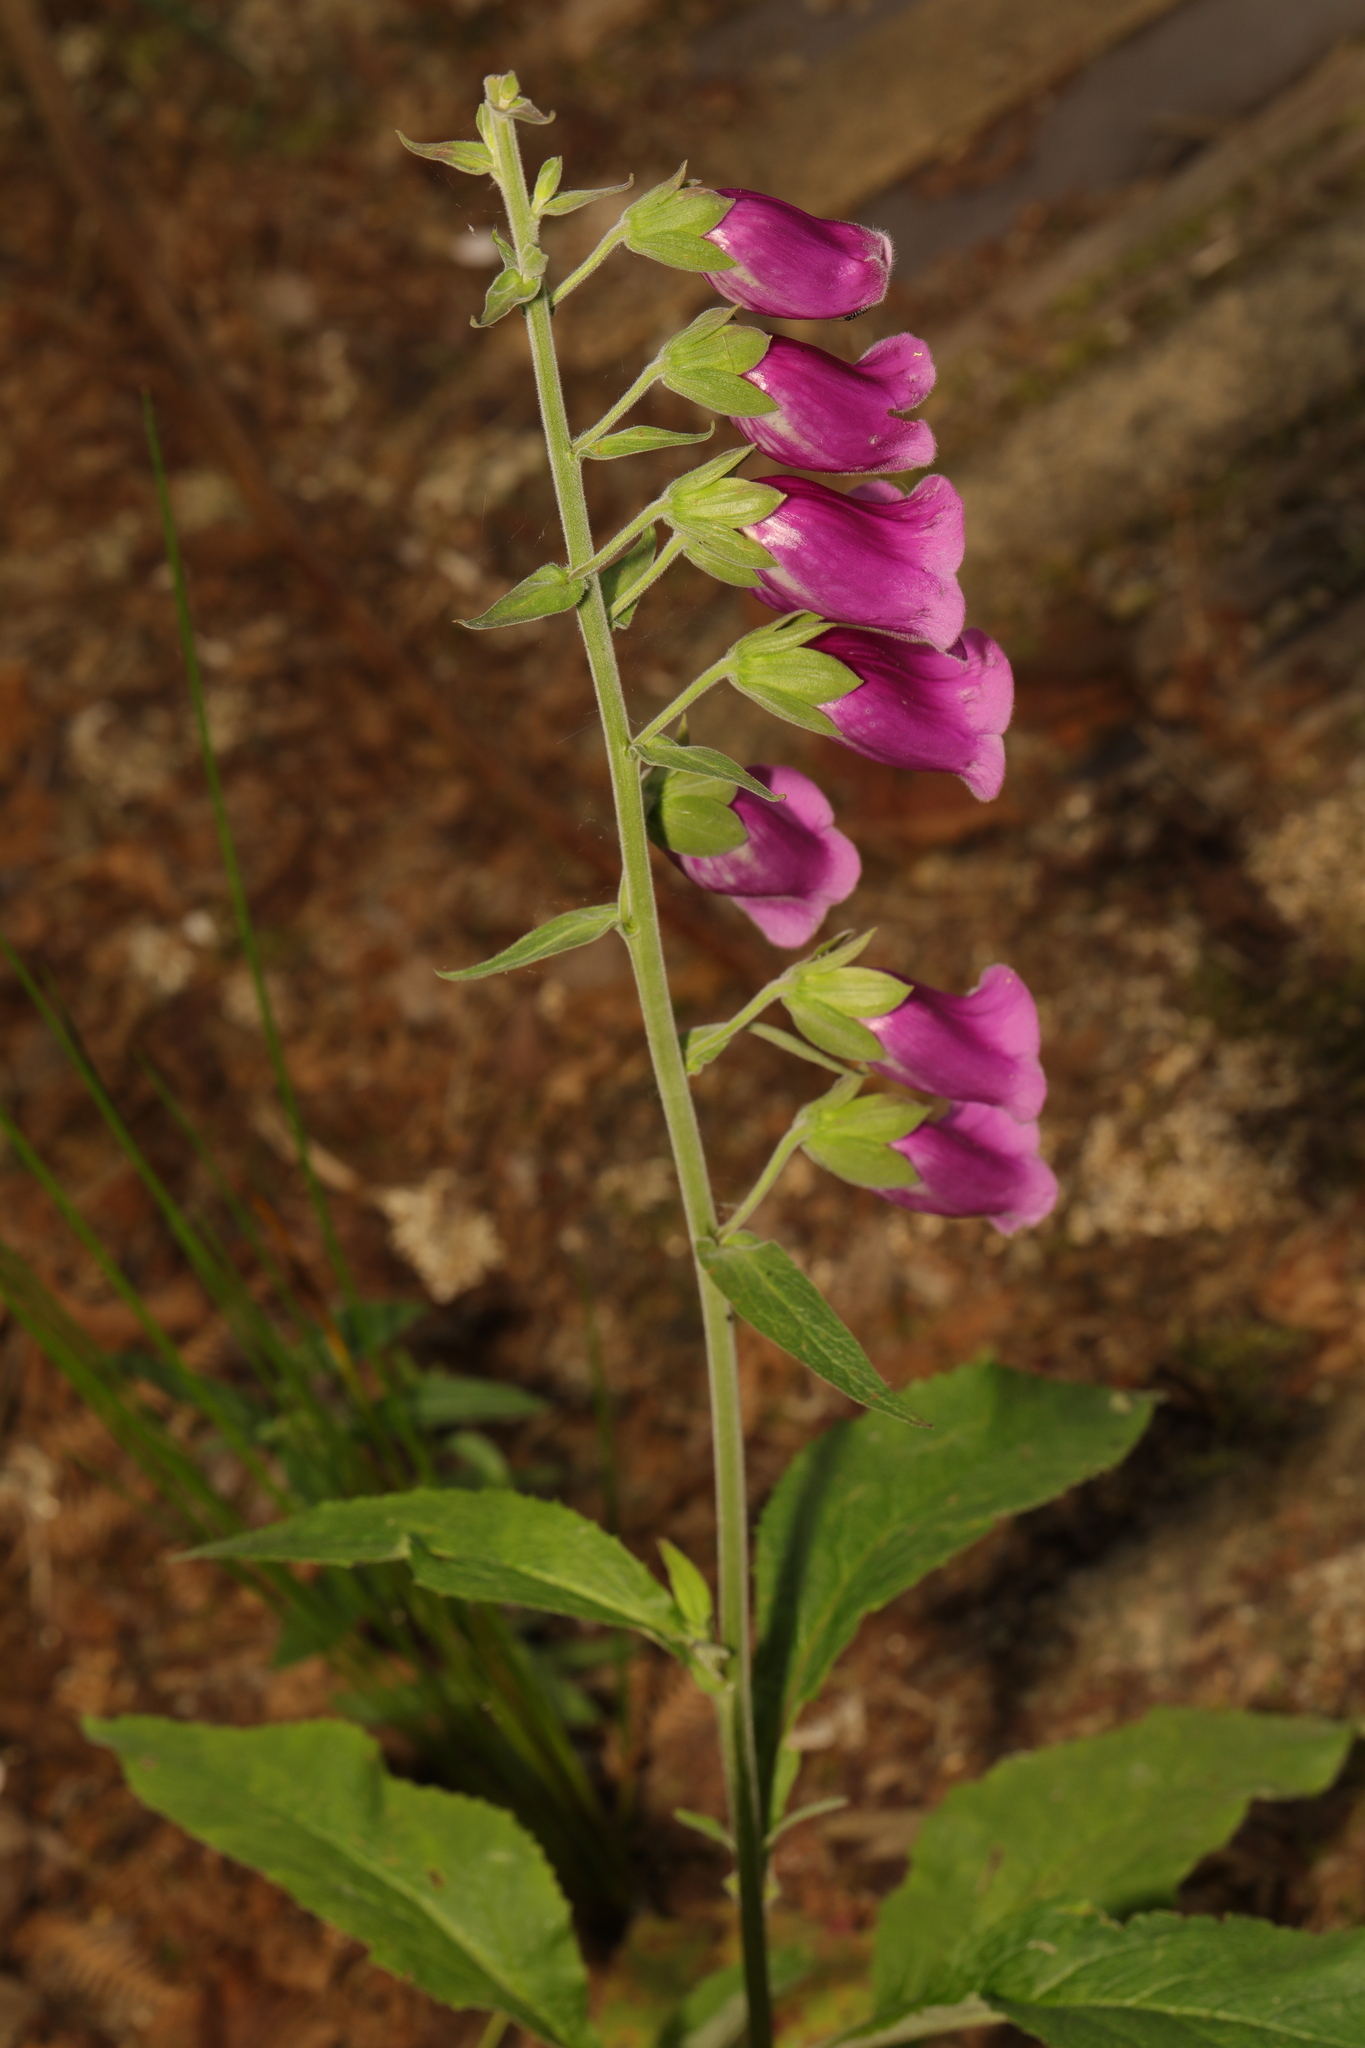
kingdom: Plantae
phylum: Tracheophyta
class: Magnoliopsida
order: Lamiales
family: Plantaginaceae
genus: Digitalis
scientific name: Digitalis purpurea
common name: Foxglove
